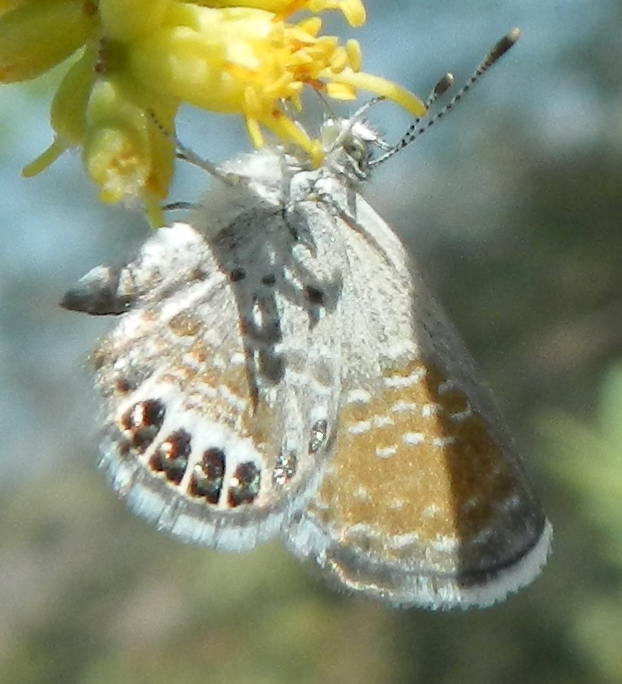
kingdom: Animalia
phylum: Arthropoda
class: Insecta
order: Lepidoptera
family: Lycaenidae
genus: Brephidium
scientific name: Brephidium exilis
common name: Pygmy blue
